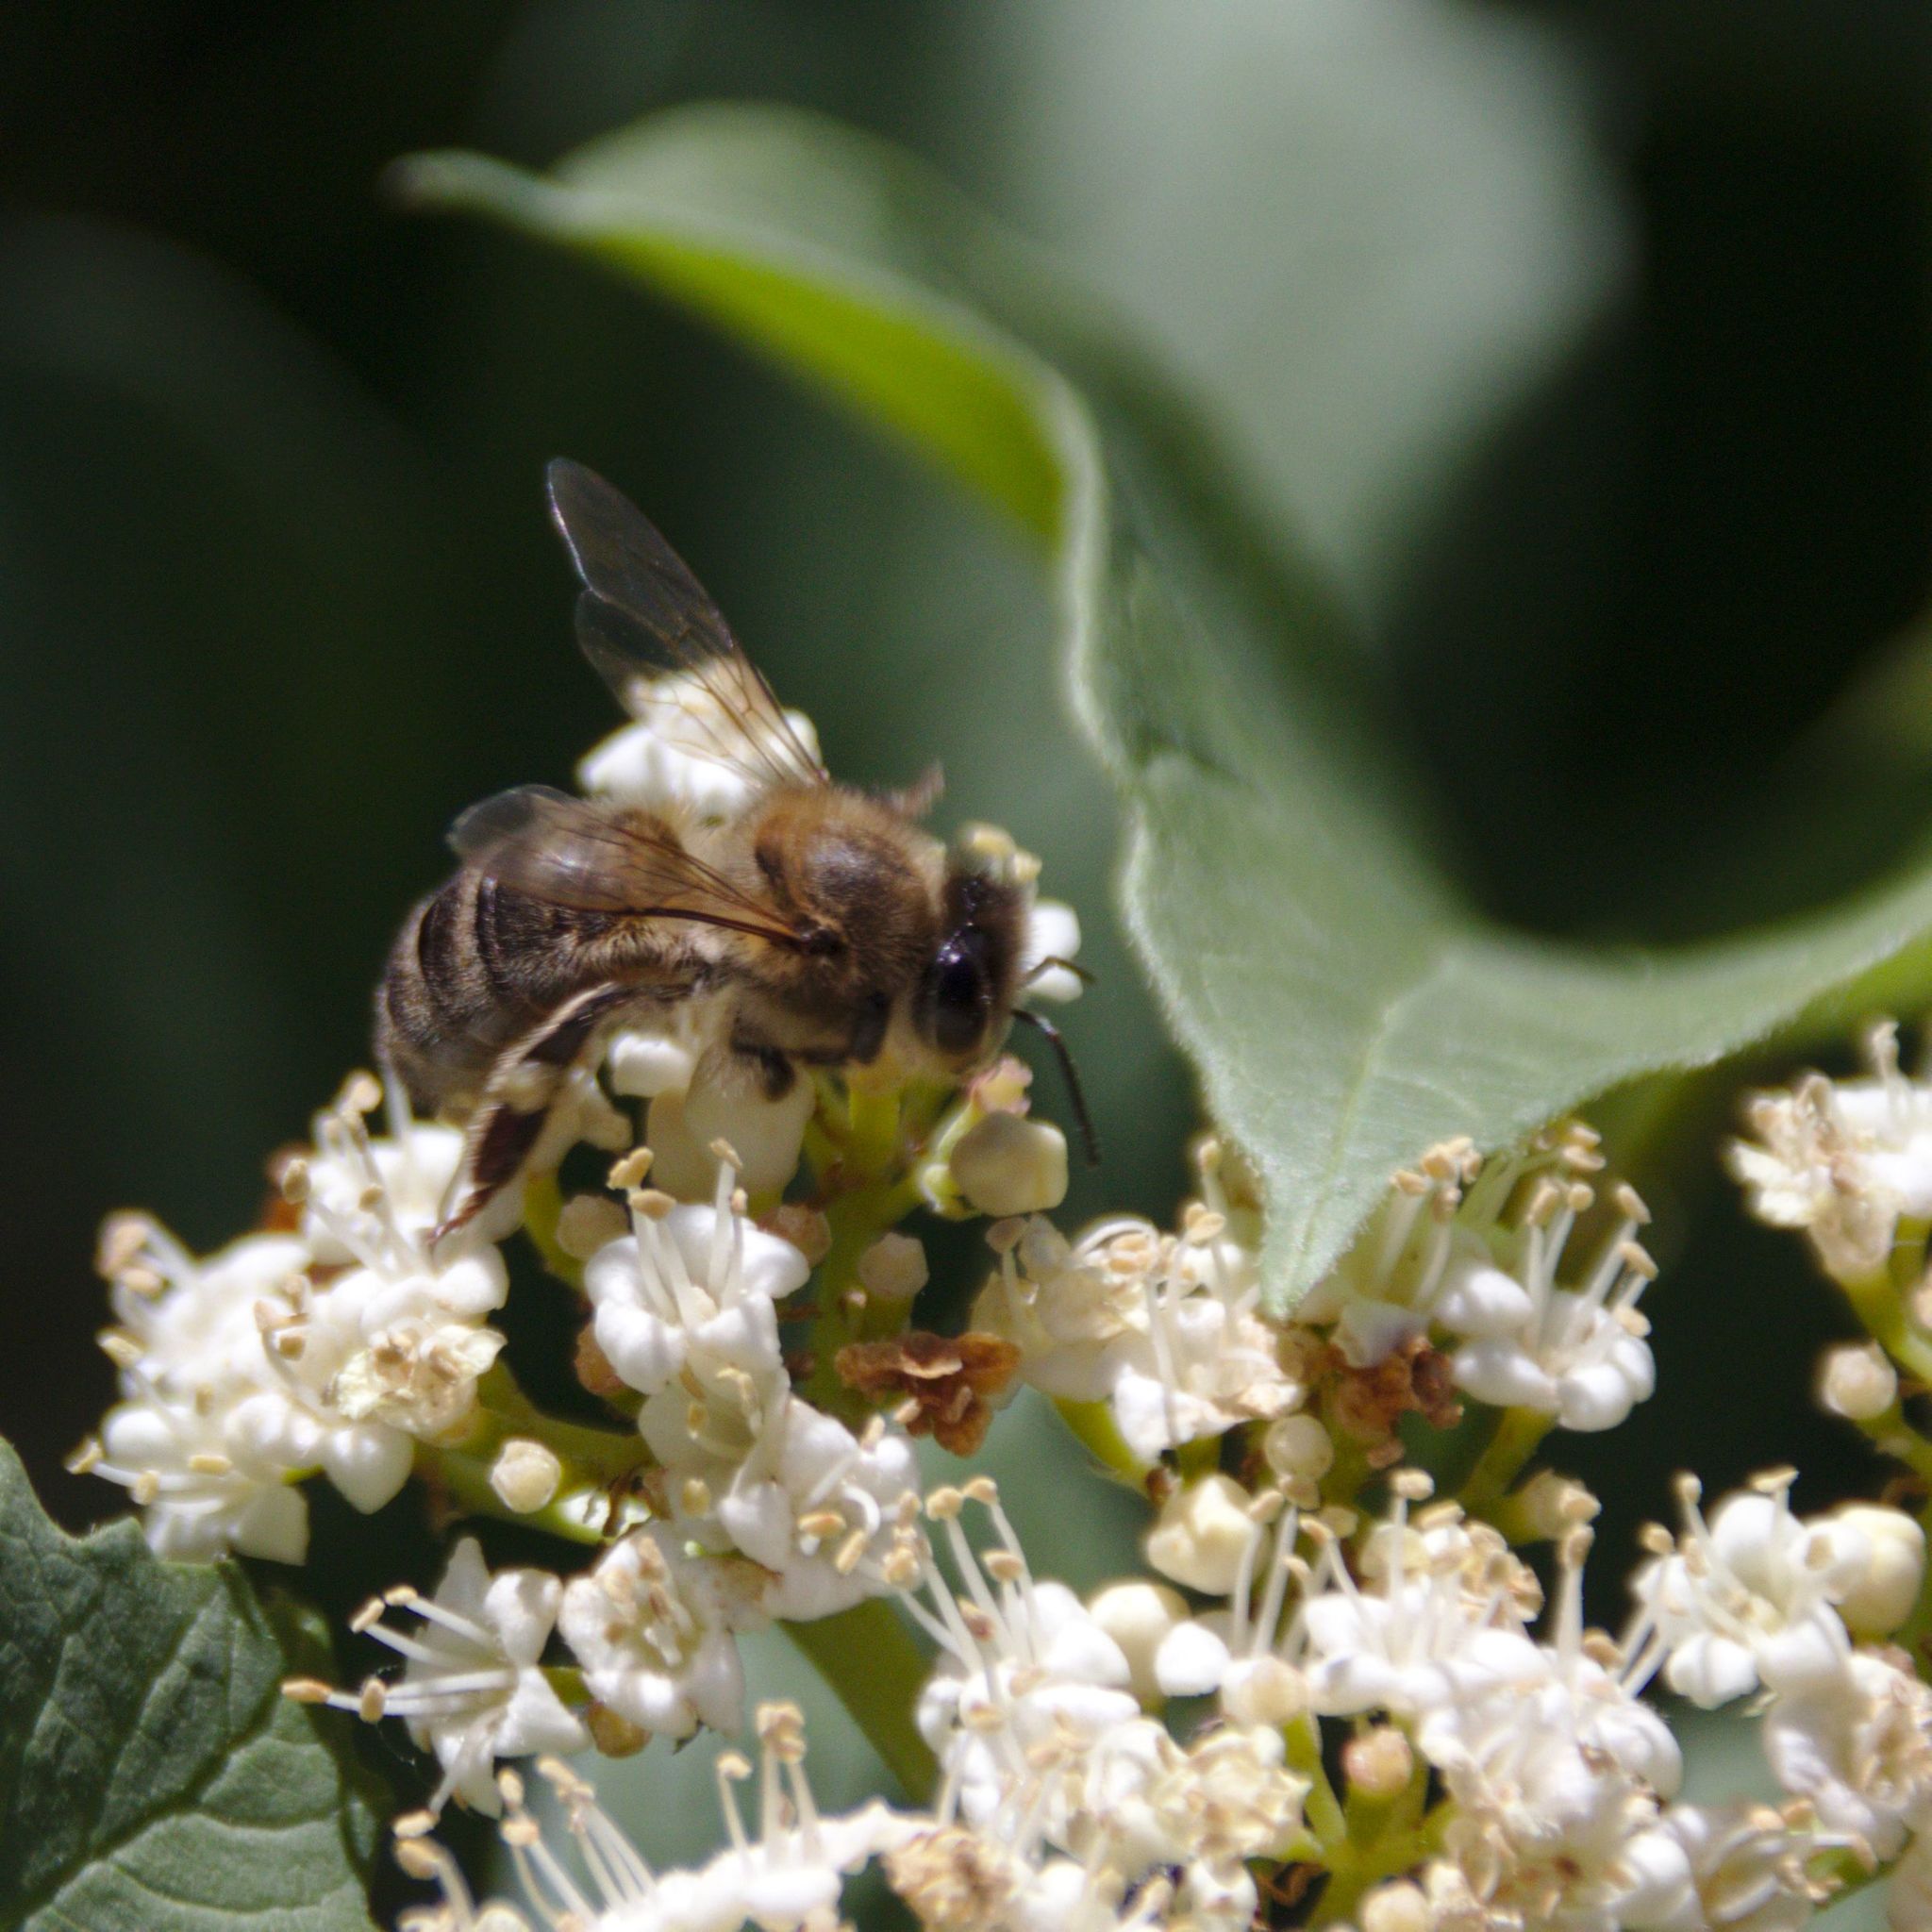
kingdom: Animalia
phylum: Arthropoda
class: Insecta
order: Hymenoptera
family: Apidae
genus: Apis
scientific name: Apis mellifera
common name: Honey bee
